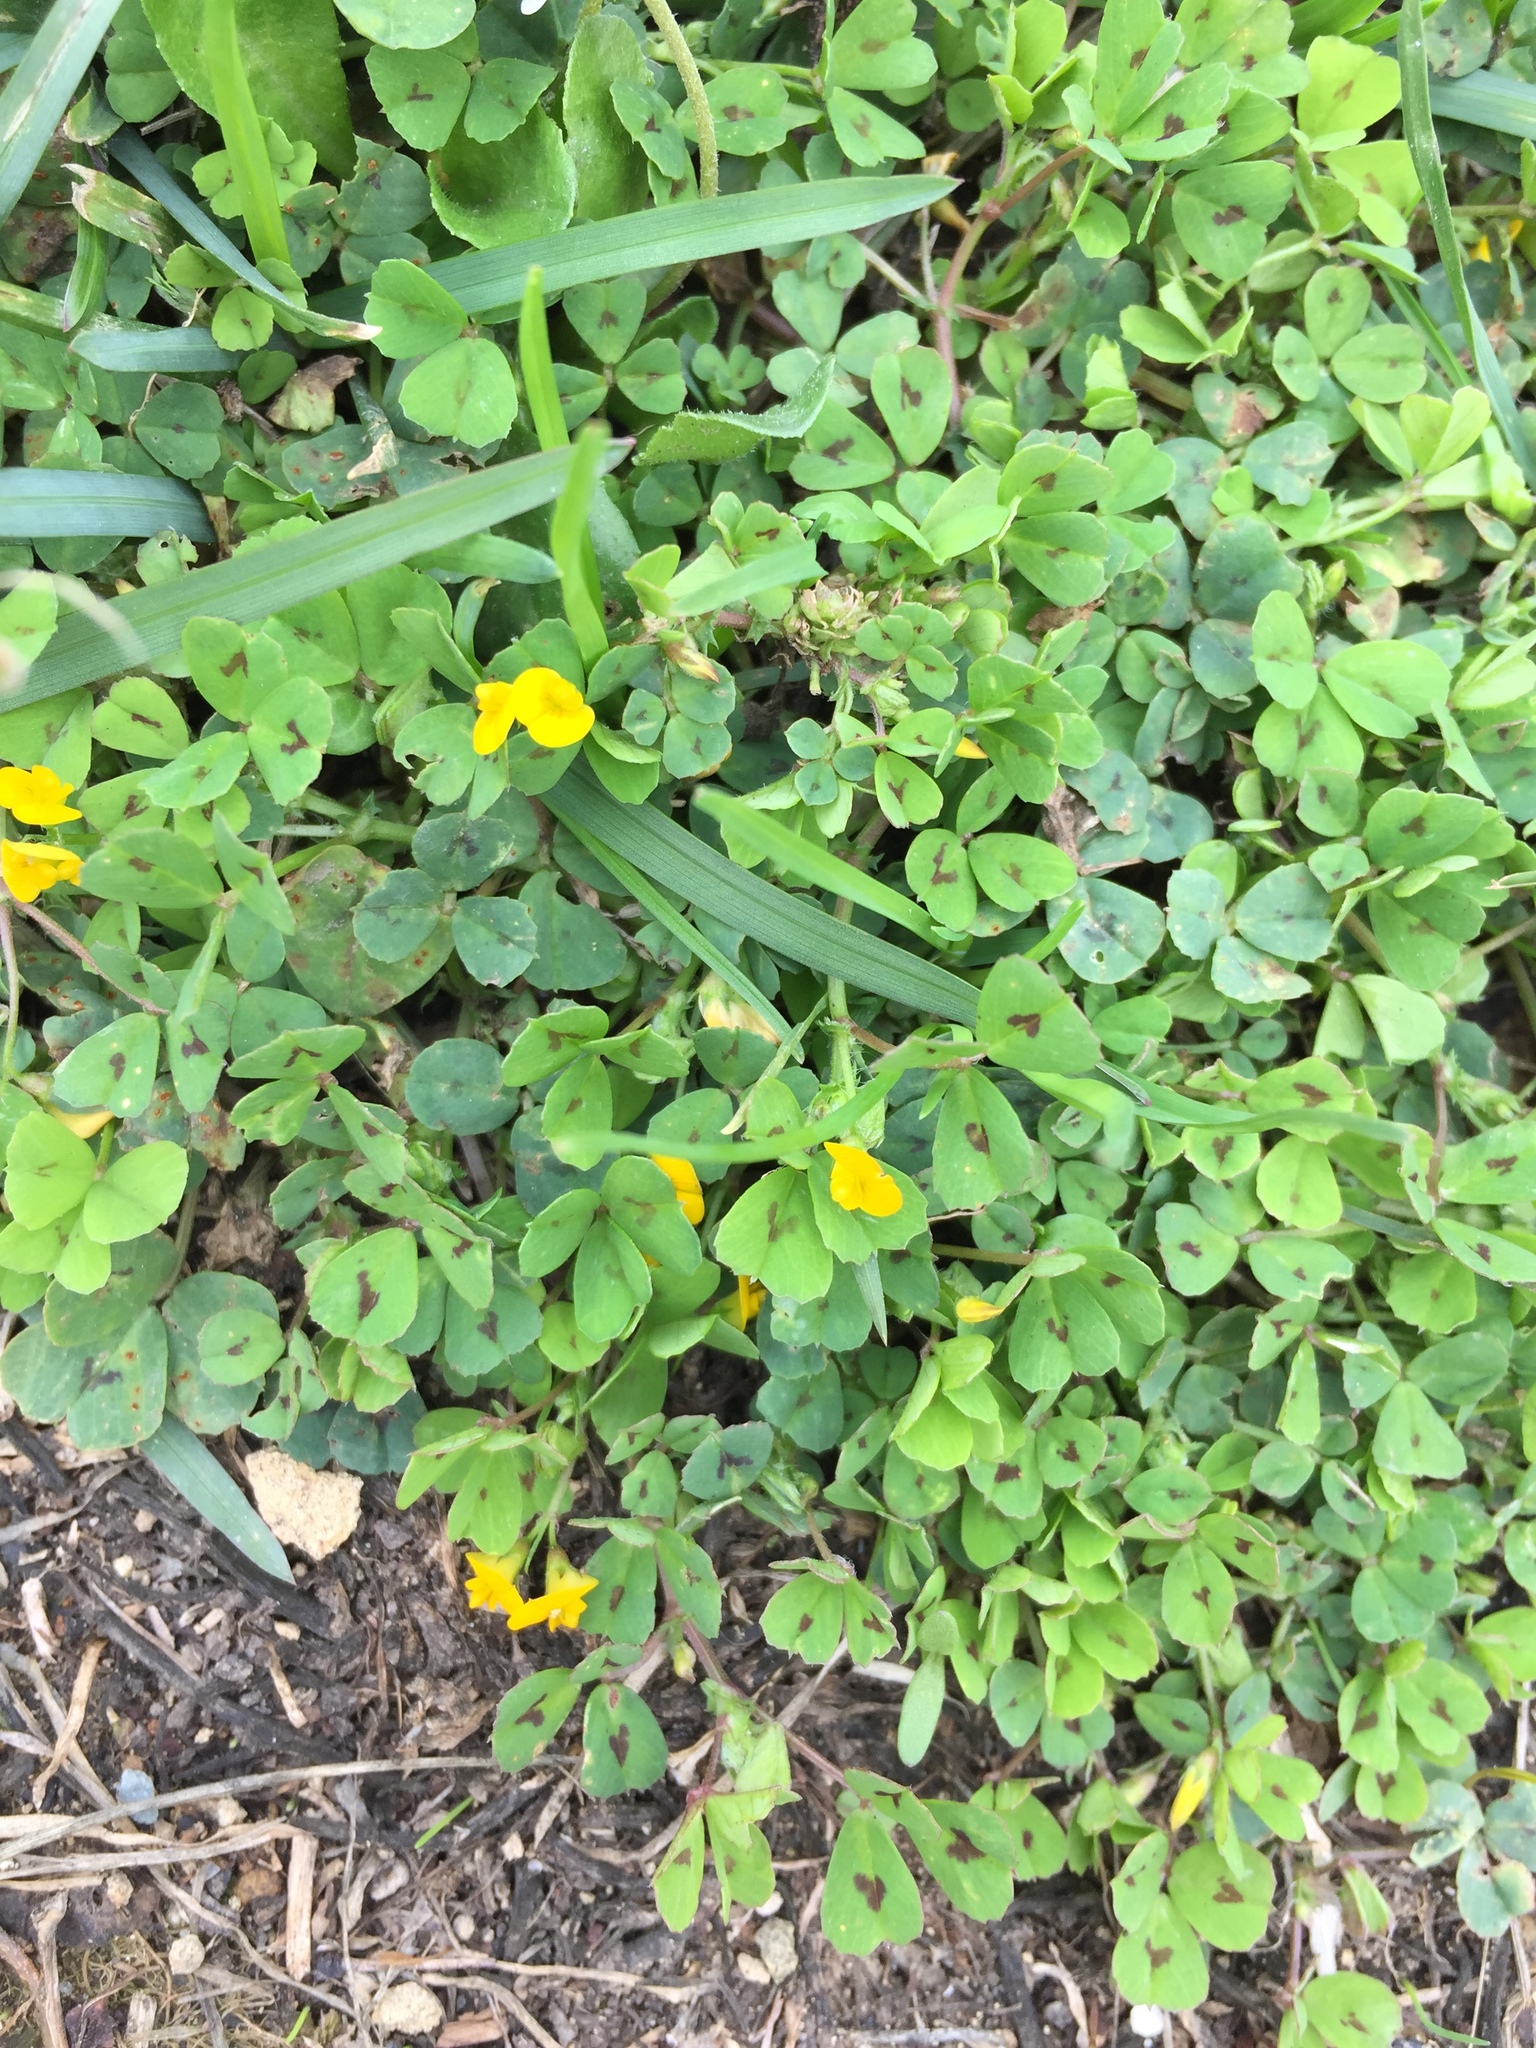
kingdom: Plantae
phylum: Tracheophyta
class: Magnoliopsida
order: Fabales
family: Fabaceae
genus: Medicago
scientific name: Medicago arabica
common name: Spotted medick
